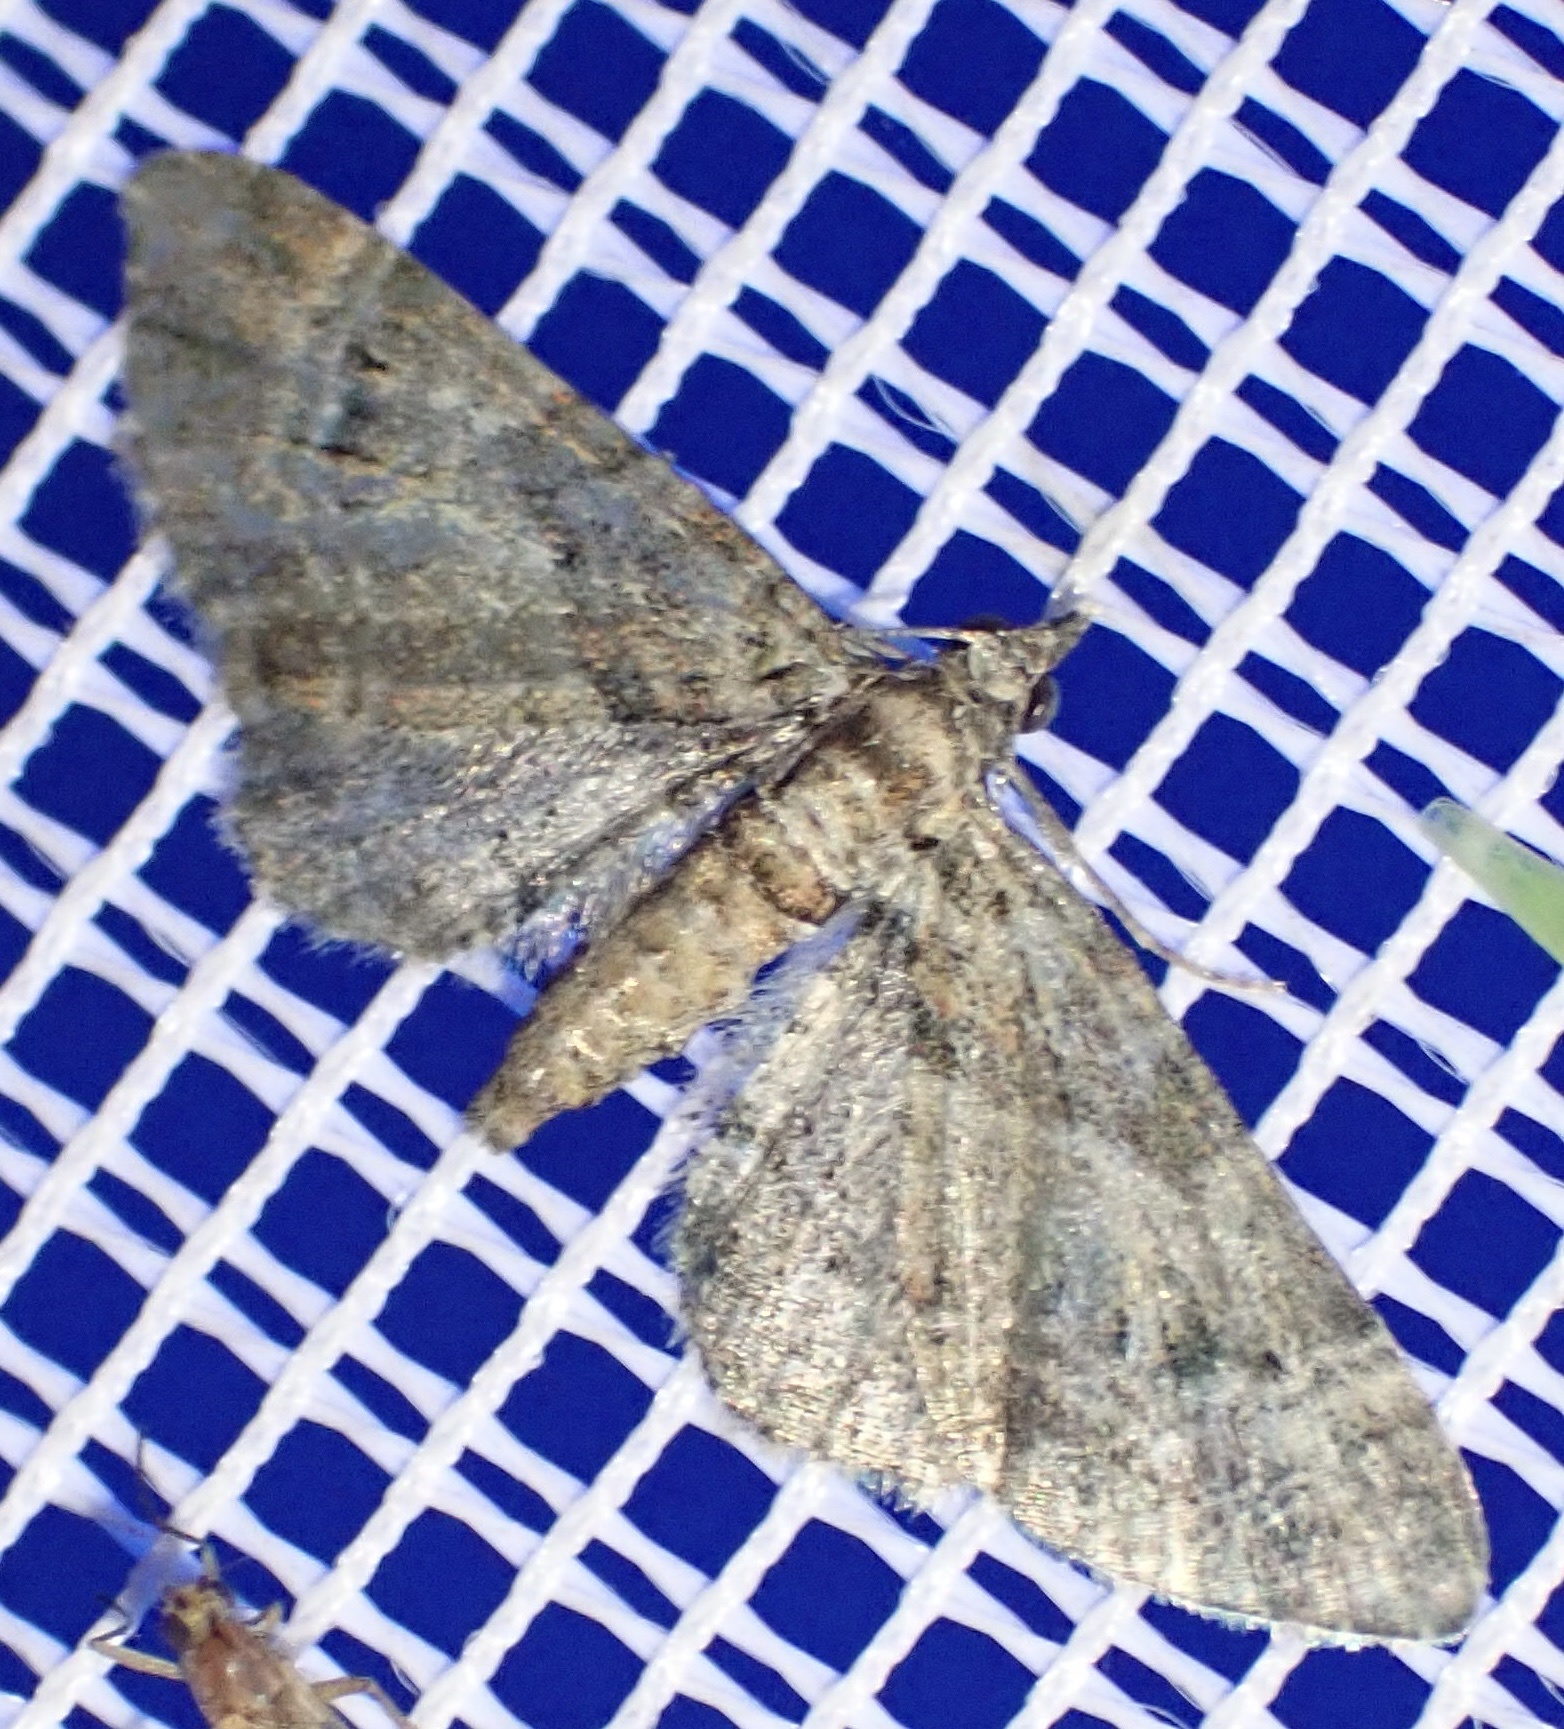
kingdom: Animalia
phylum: Arthropoda
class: Insecta
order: Lepidoptera
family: Geometridae
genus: Gymnoscelis
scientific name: Gymnoscelis rufifasciata
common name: Double-striped pug
